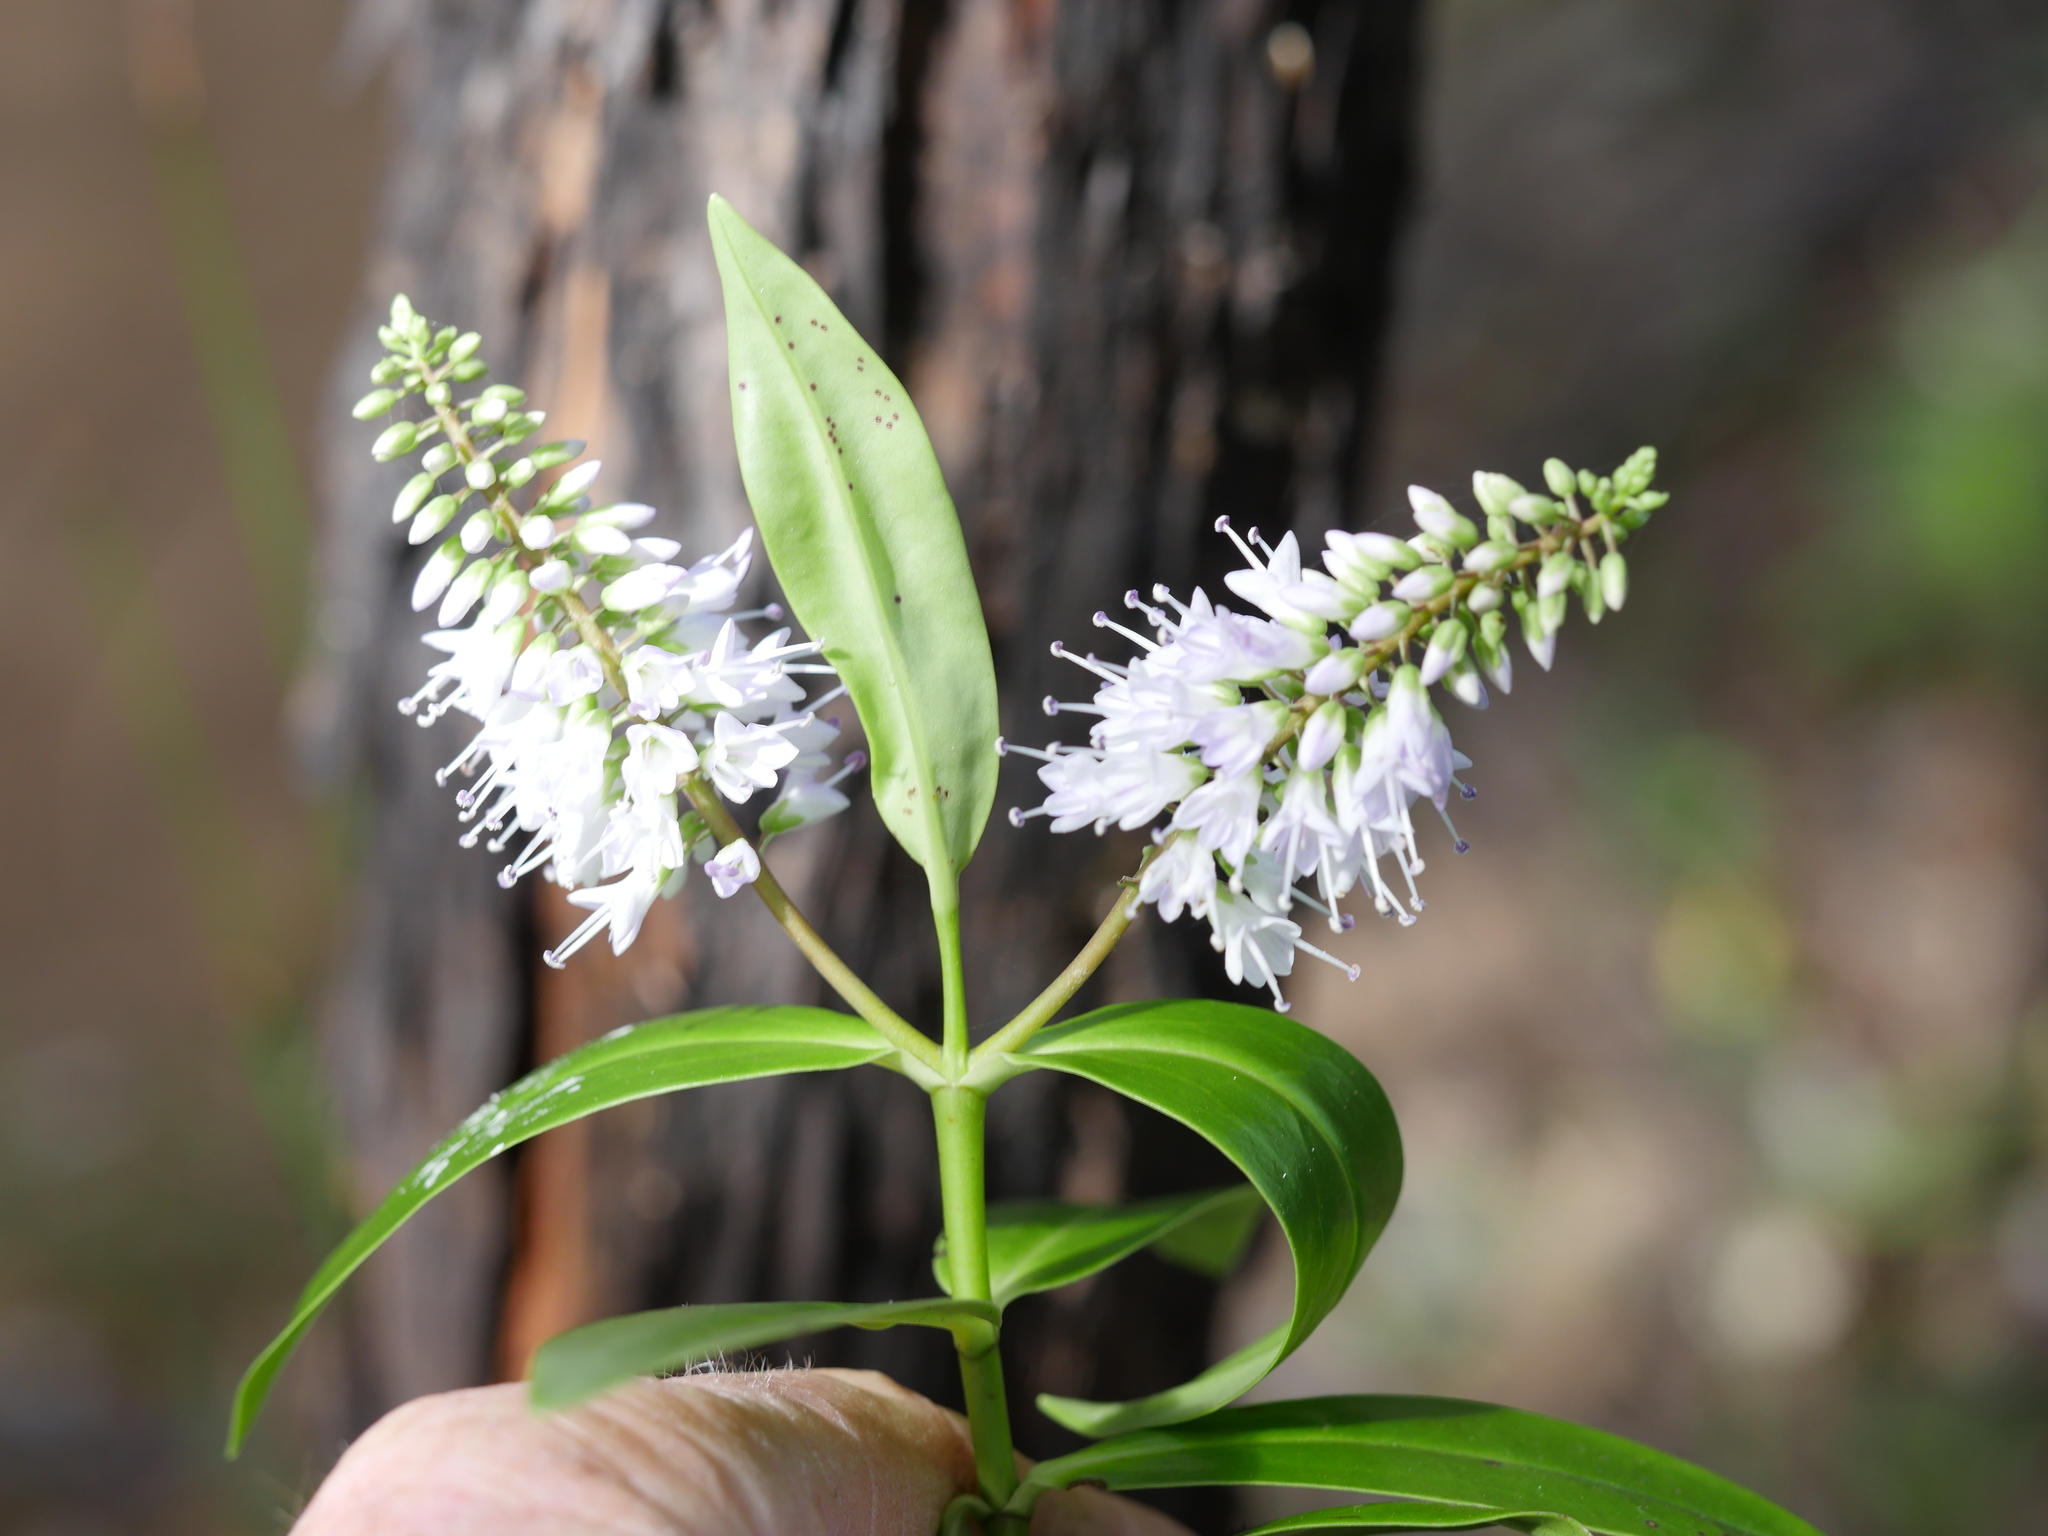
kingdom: Plantae
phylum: Tracheophyta
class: Magnoliopsida
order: Lamiales
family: Plantaginaceae
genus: Veronica
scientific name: Veronica macrocarpa
